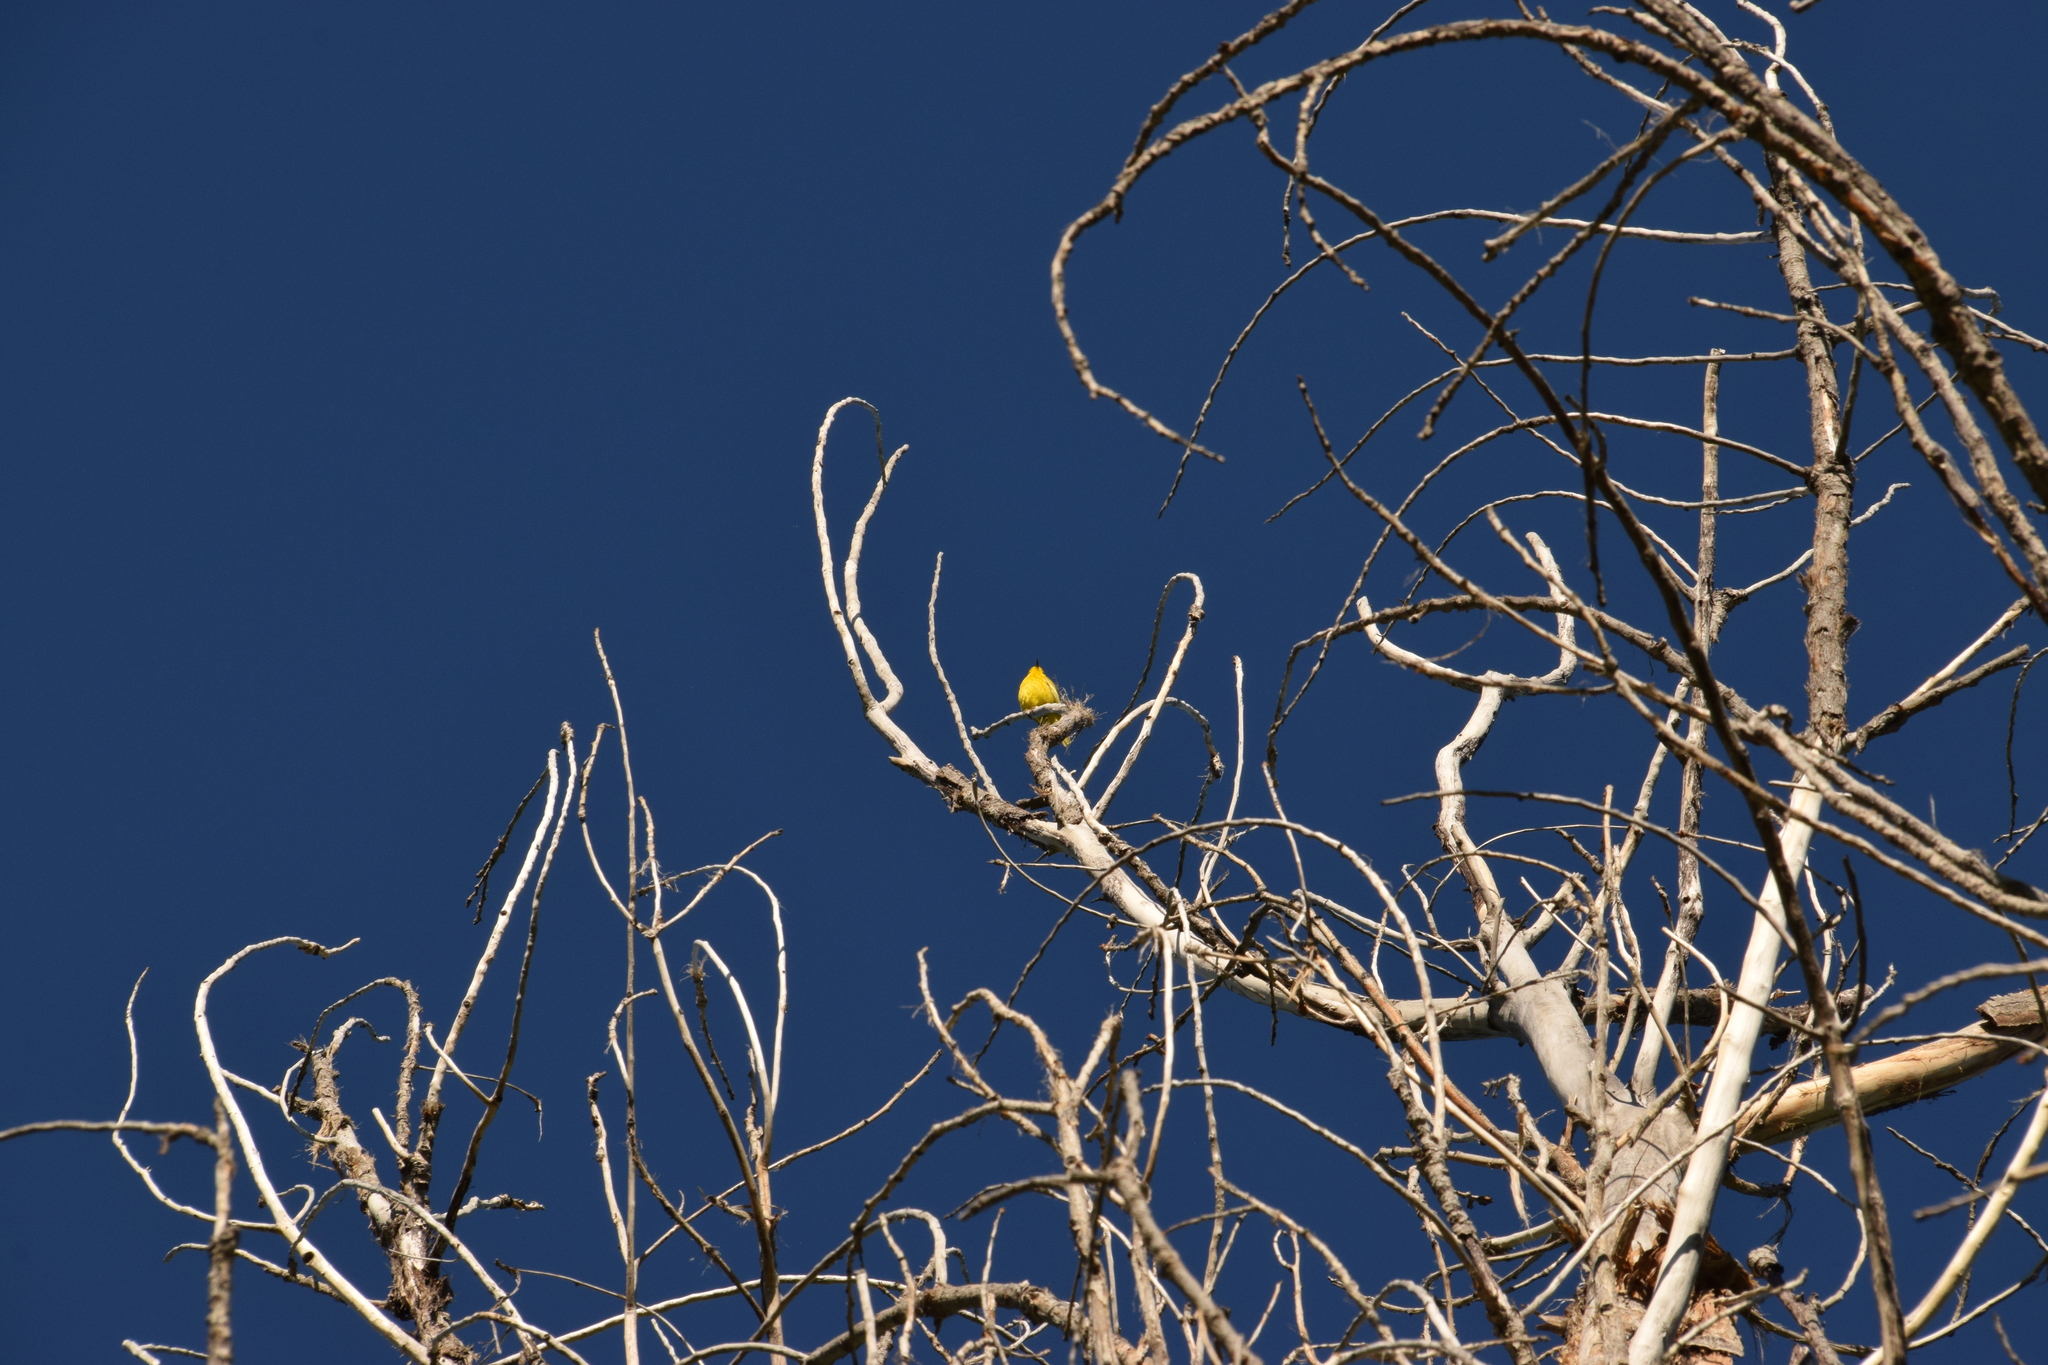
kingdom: Animalia
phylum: Chordata
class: Aves
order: Passeriformes
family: Parulidae
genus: Setophaga
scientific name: Setophaga petechia
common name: Yellow warbler
